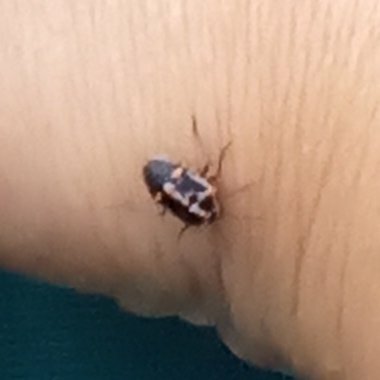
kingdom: Animalia
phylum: Arthropoda
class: Insecta
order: Hemiptera
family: Pentatomidae
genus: Bagrada
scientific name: Bagrada hilaris
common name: Bagrada bug
